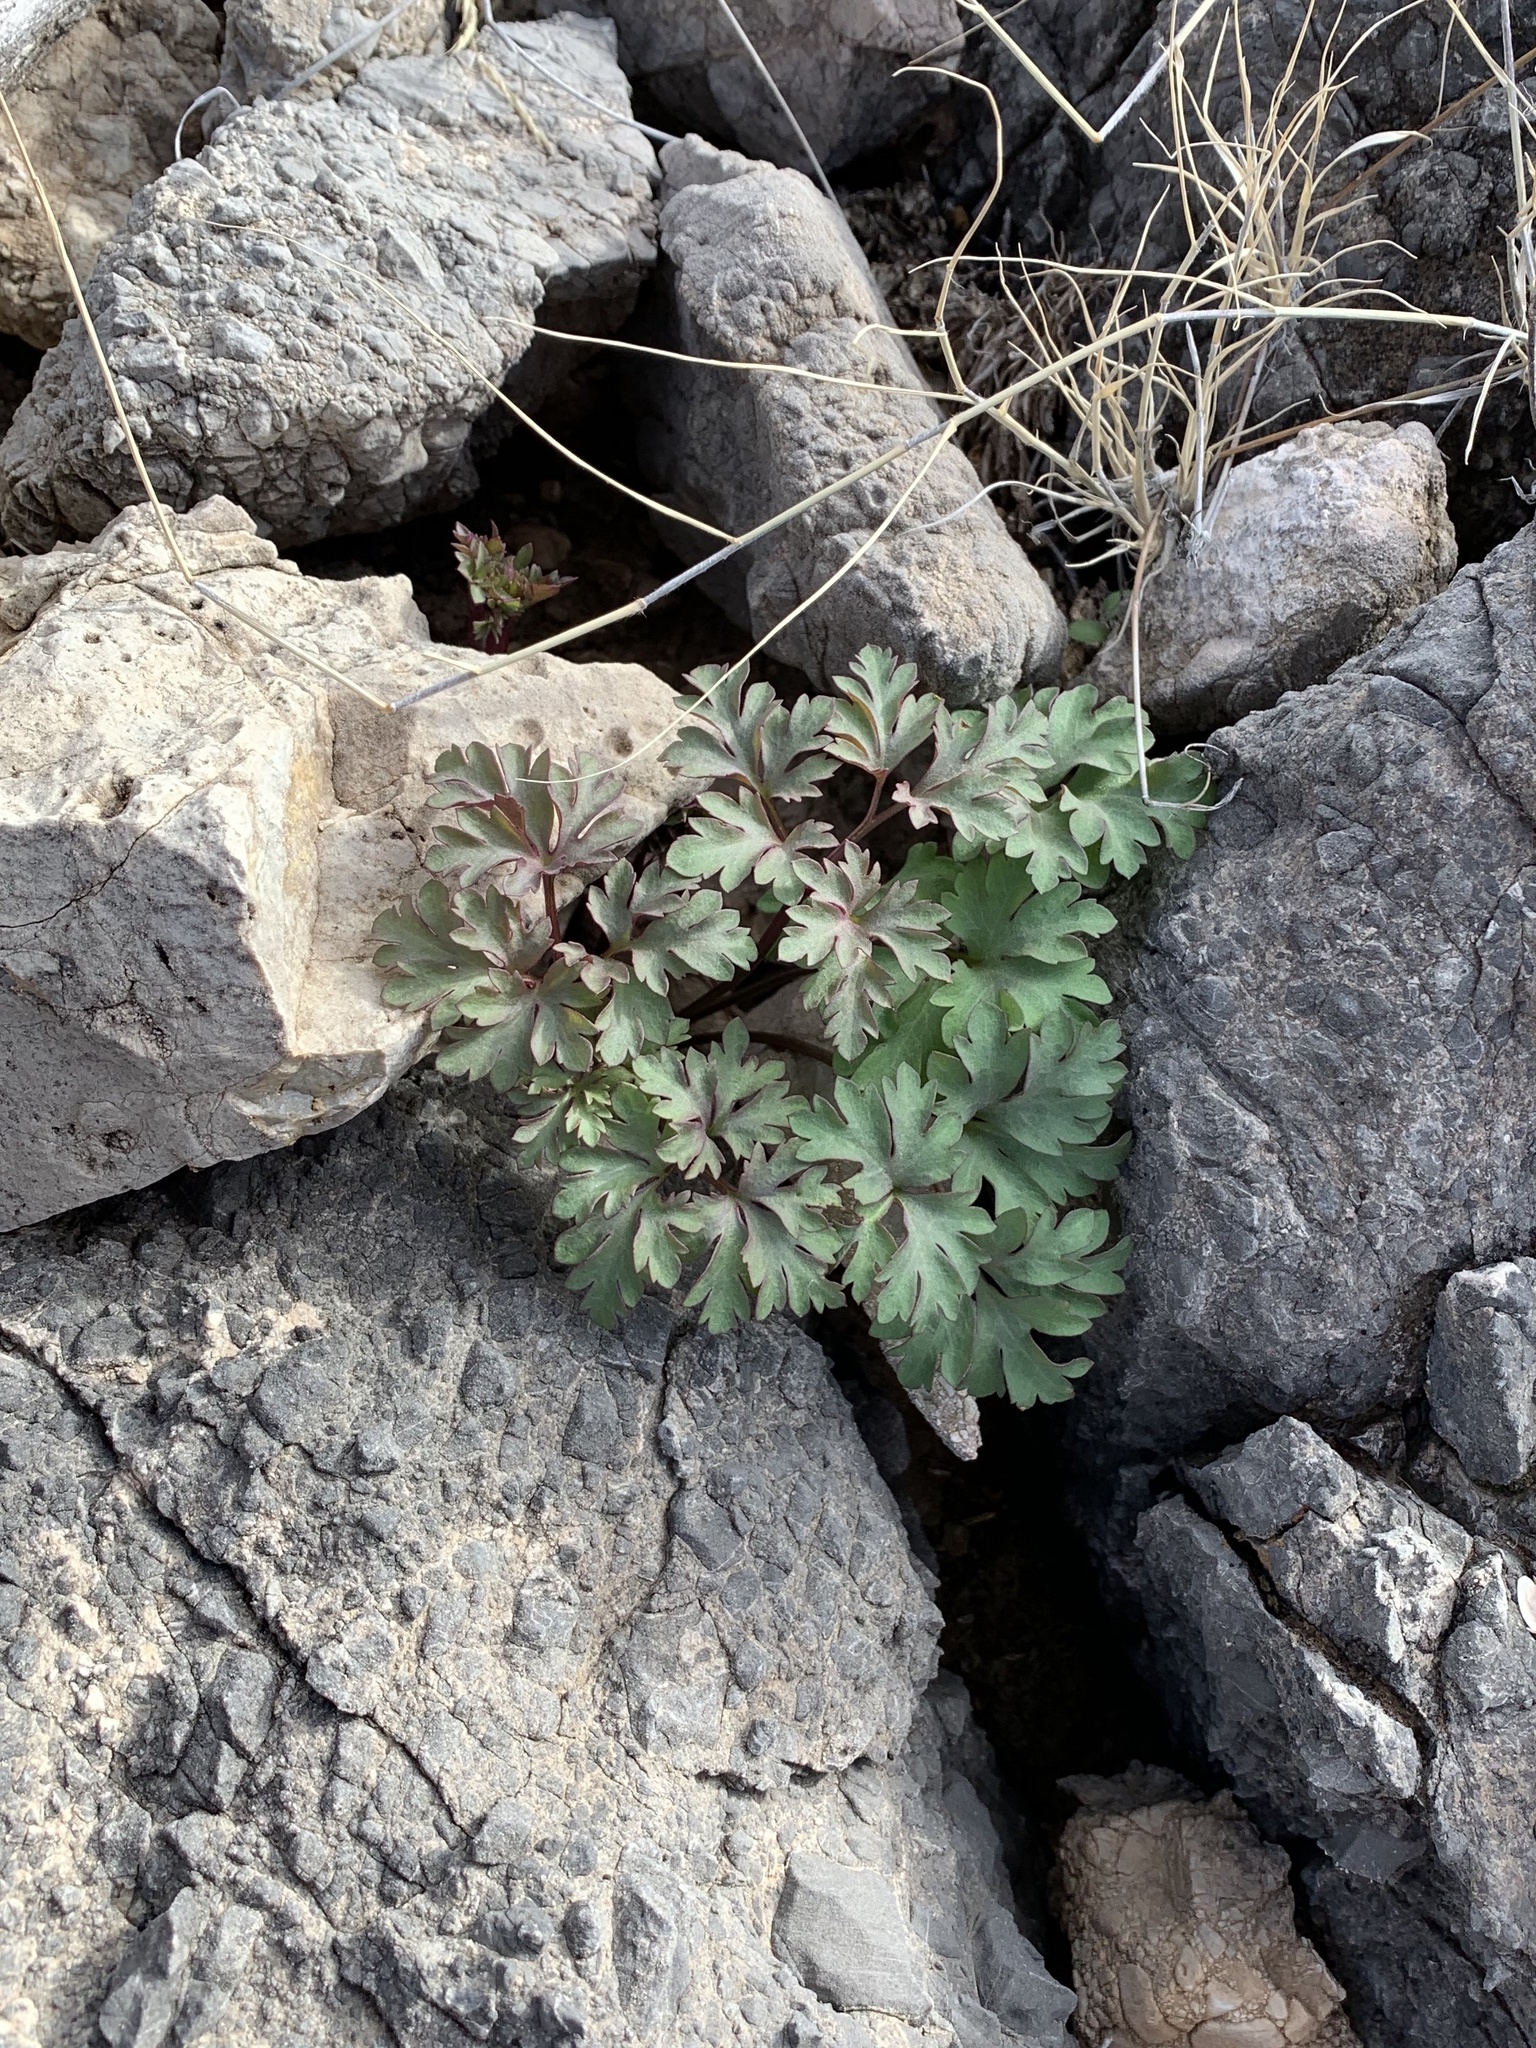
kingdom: Plantae
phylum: Tracheophyta
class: Magnoliopsida
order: Ranunculales
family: Ranunculaceae
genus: Anemone
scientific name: Anemone tuberosa
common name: Desert anemone
